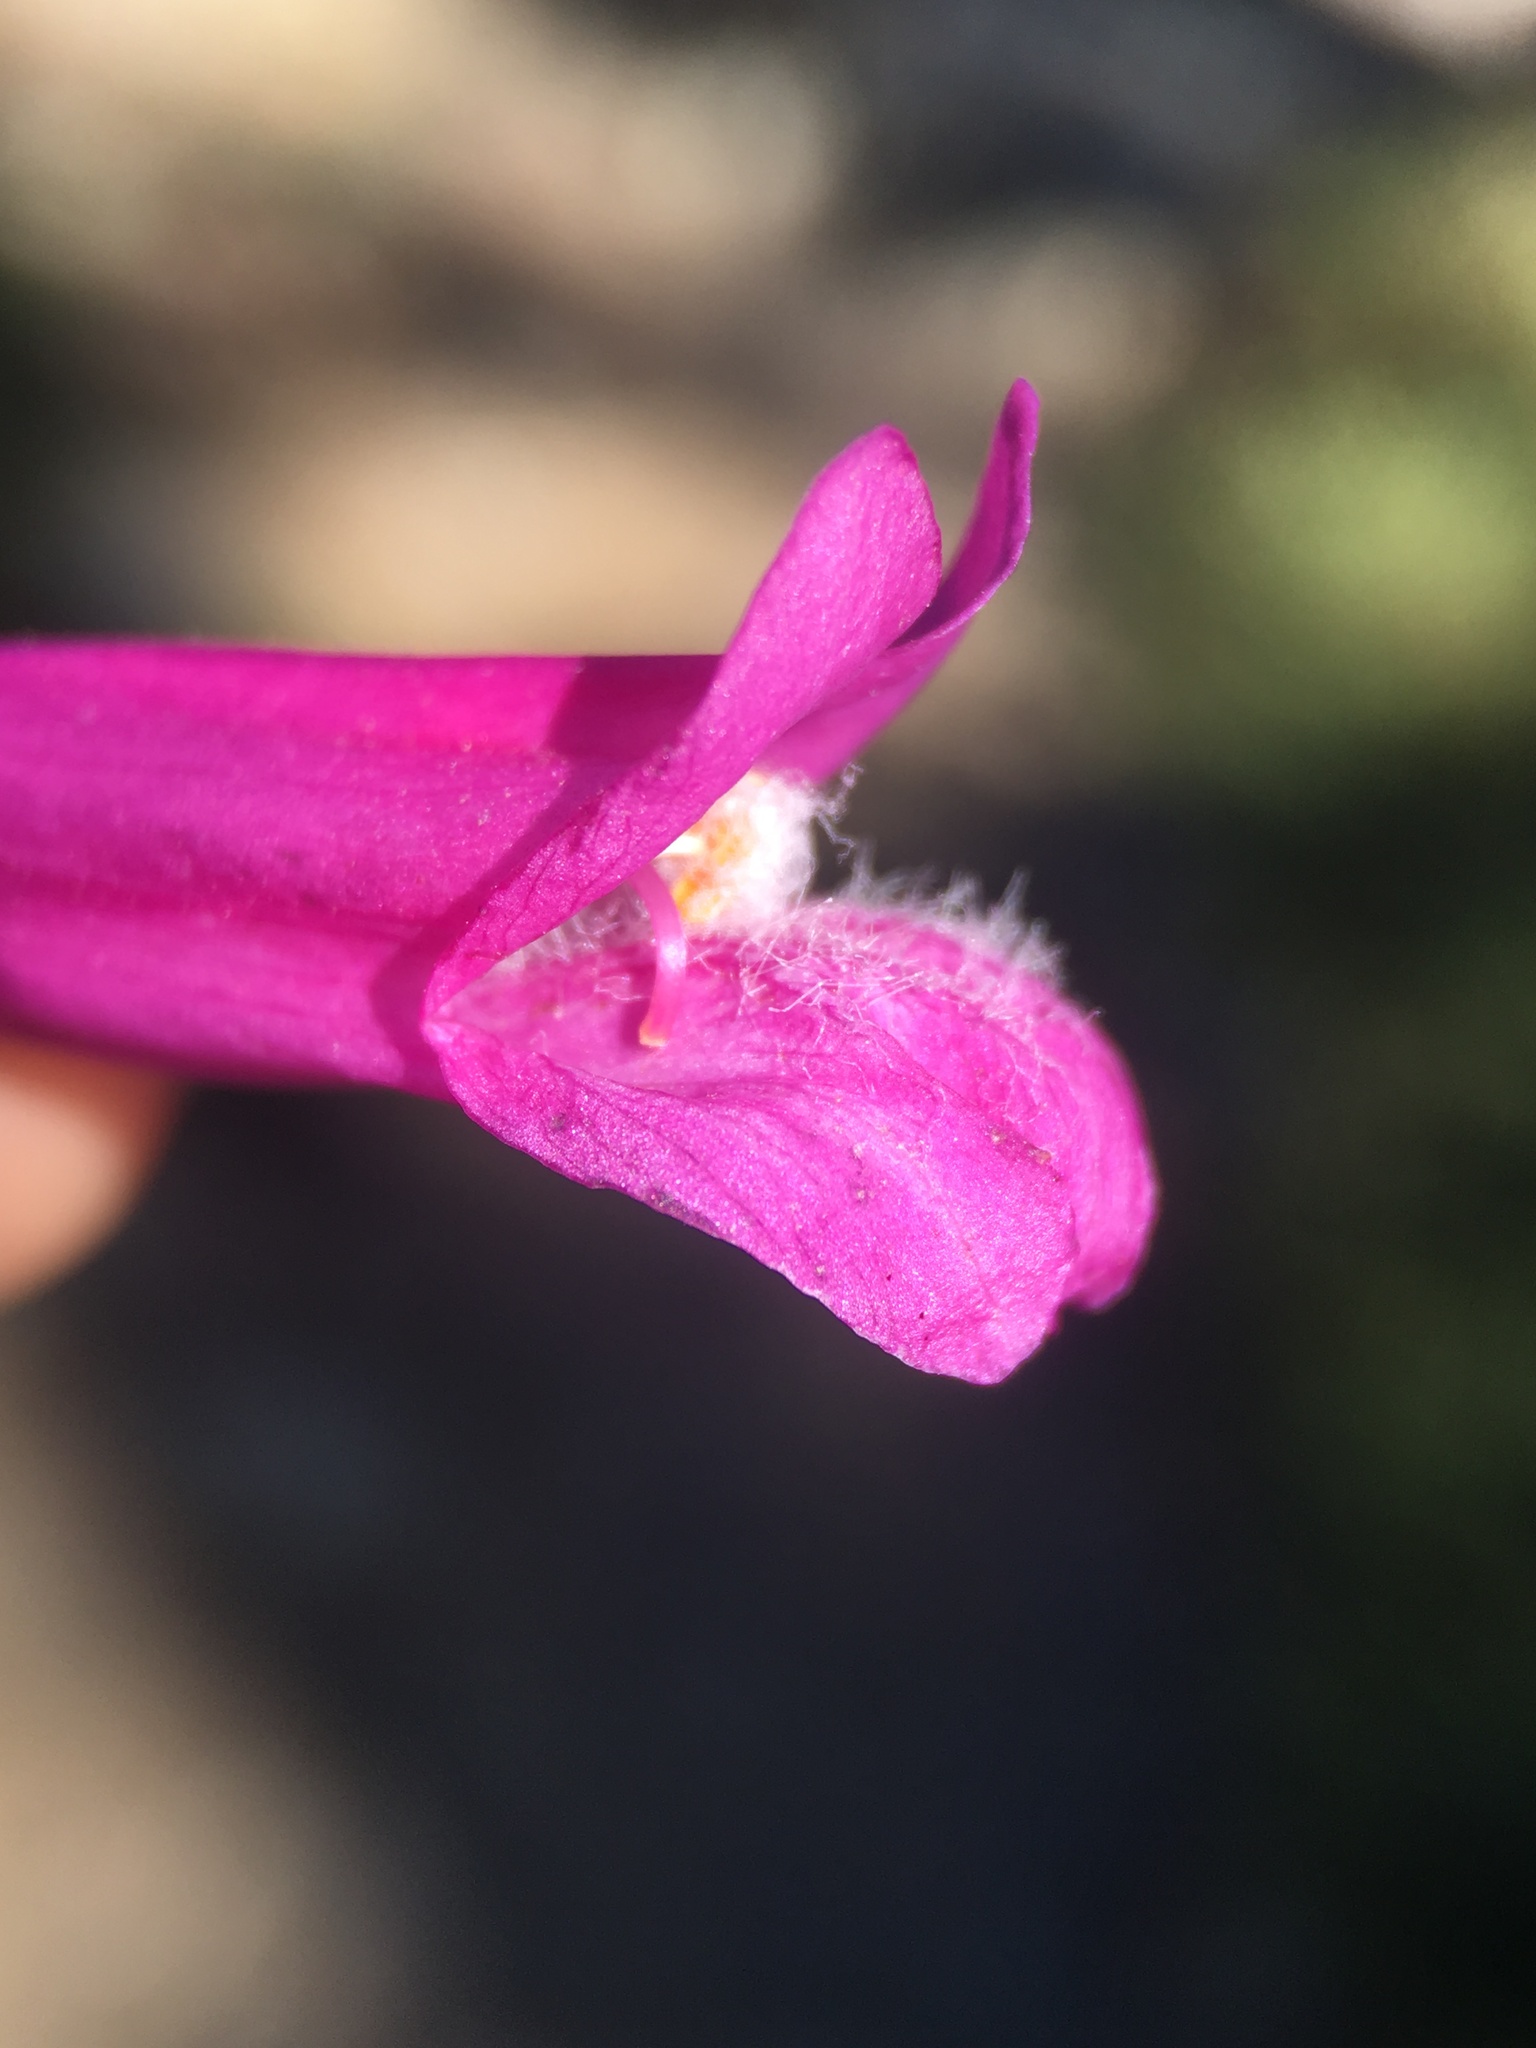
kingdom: Plantae
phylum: Tracheophyta
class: Magnoliopsida
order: Lamiales
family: Plantaginaceae
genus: Penstemon
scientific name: Penstemon newberryi
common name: Mountain-pride
